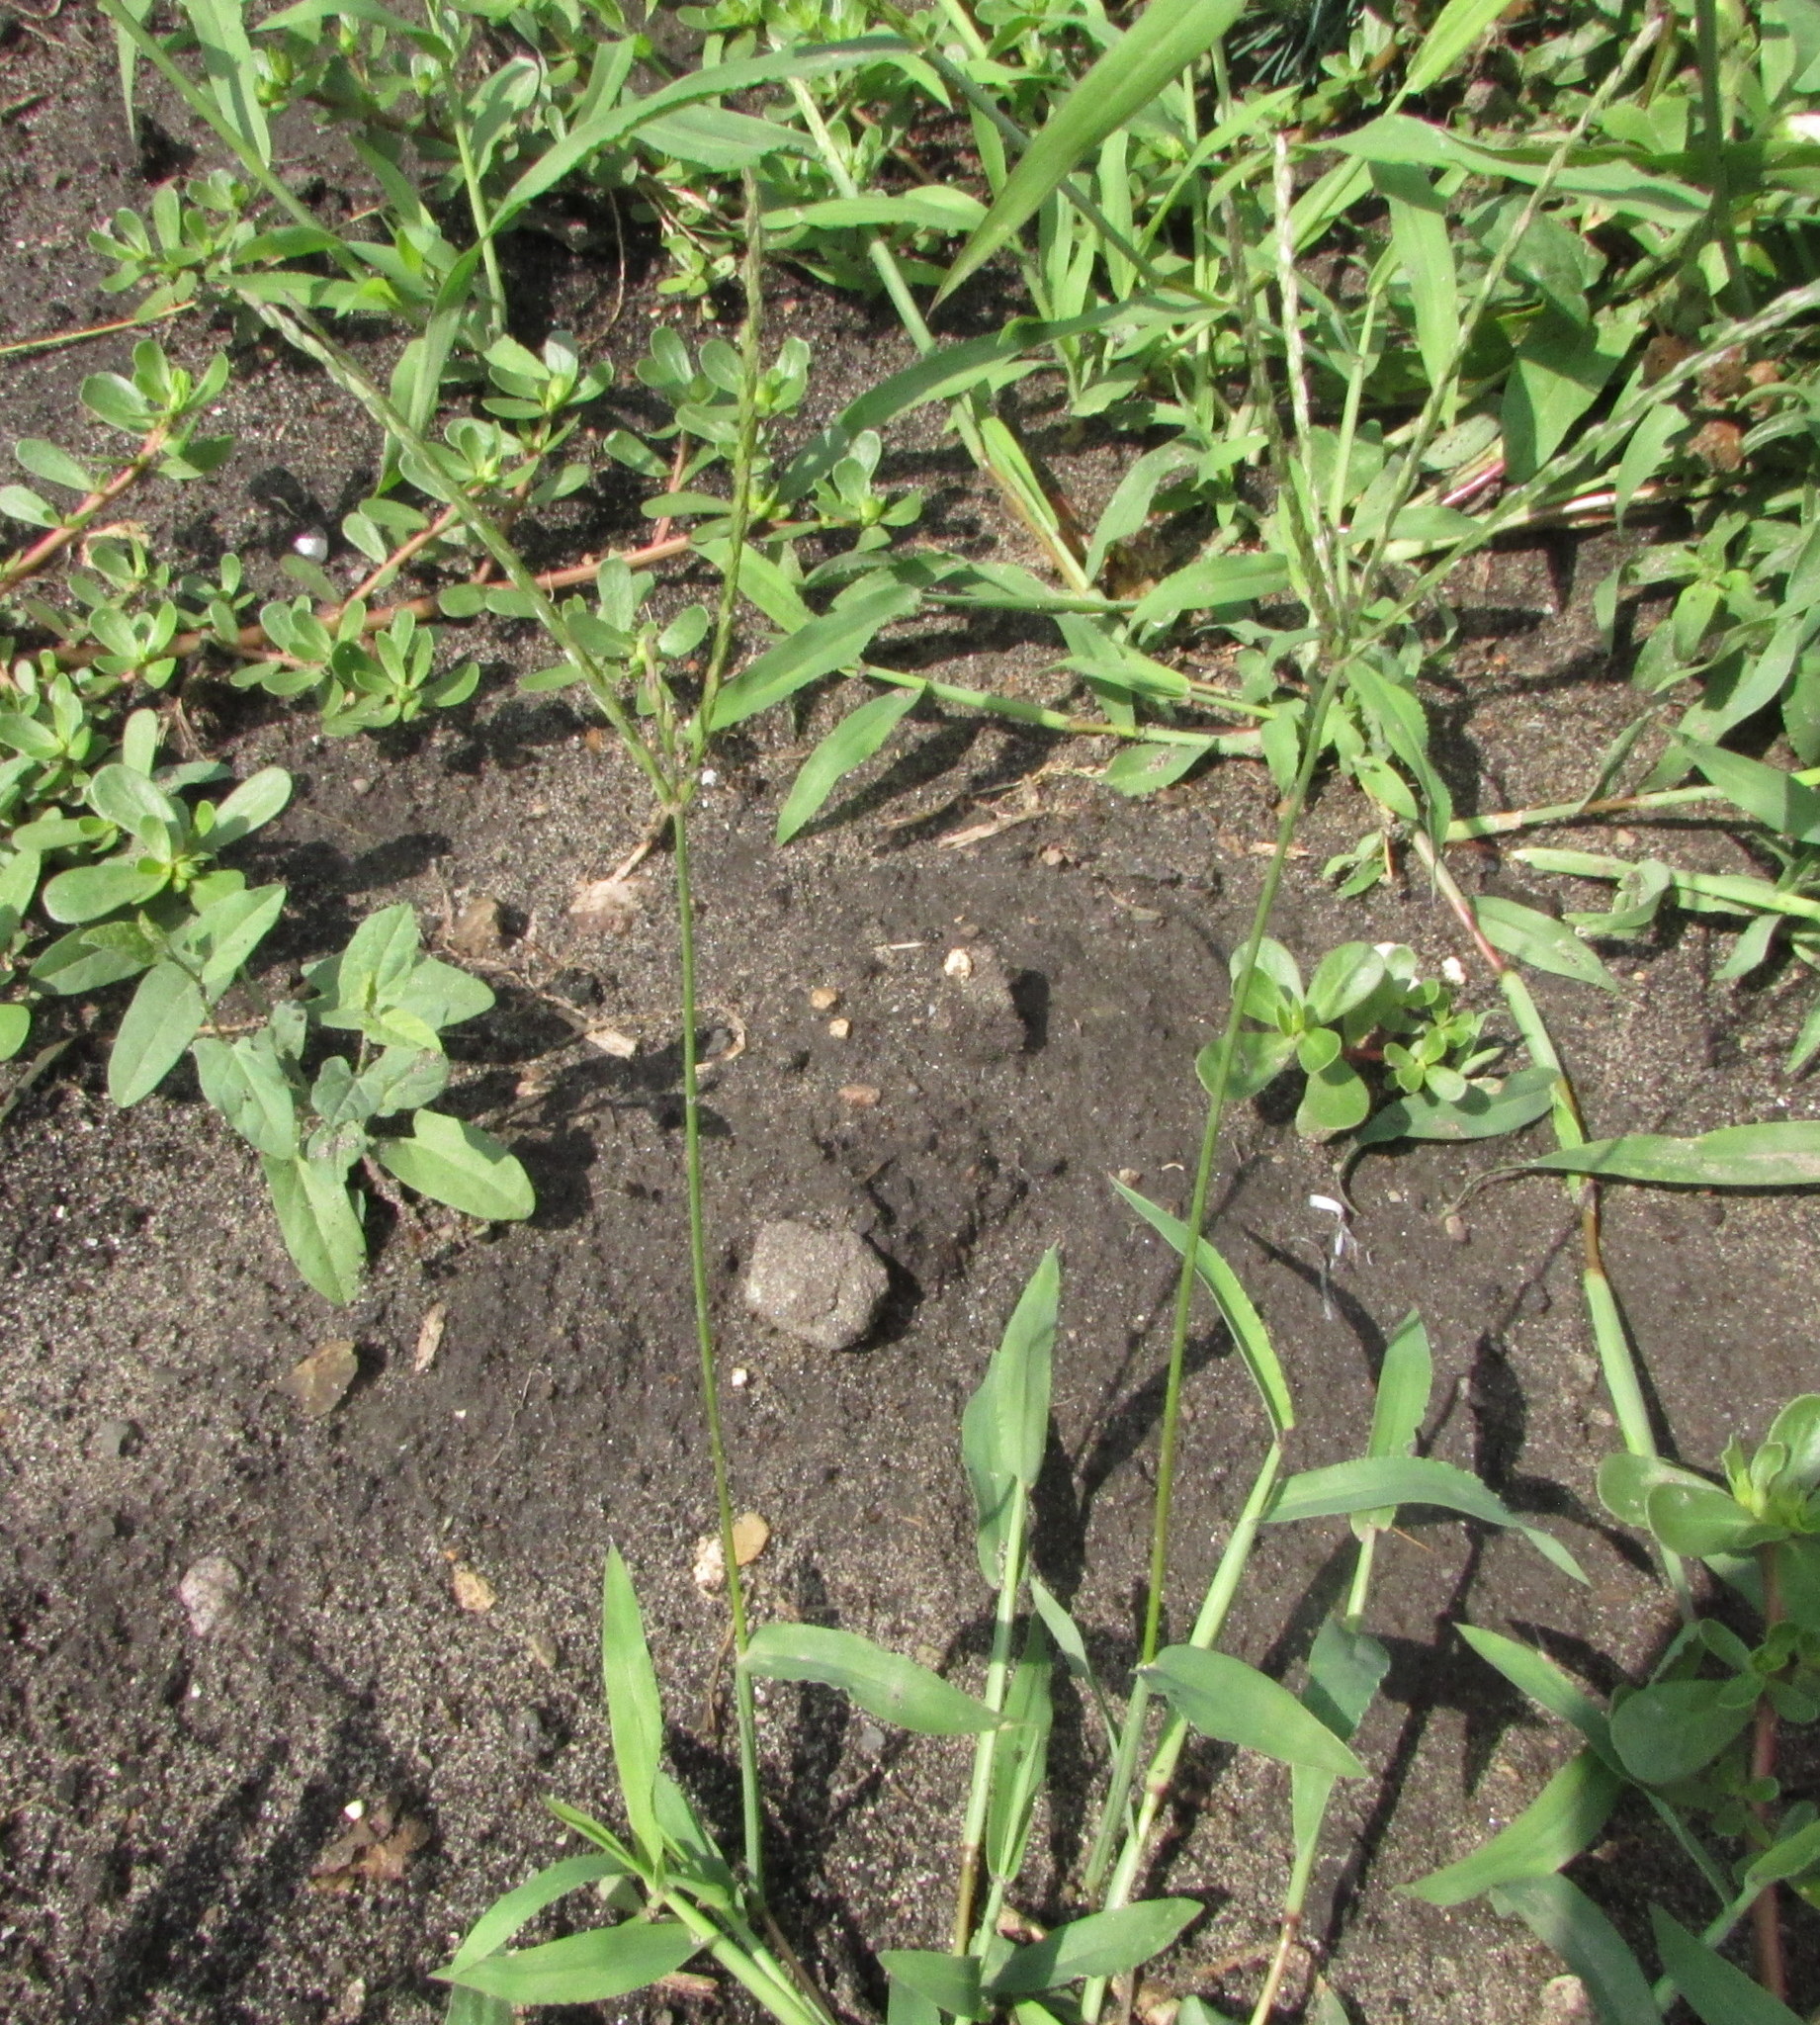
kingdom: Plantae
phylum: Tracheophyta
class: Liliopsida
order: Poales
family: Poaceae
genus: Digitaria
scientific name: Digitaria ischaemum
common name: Smooth crabgrass
